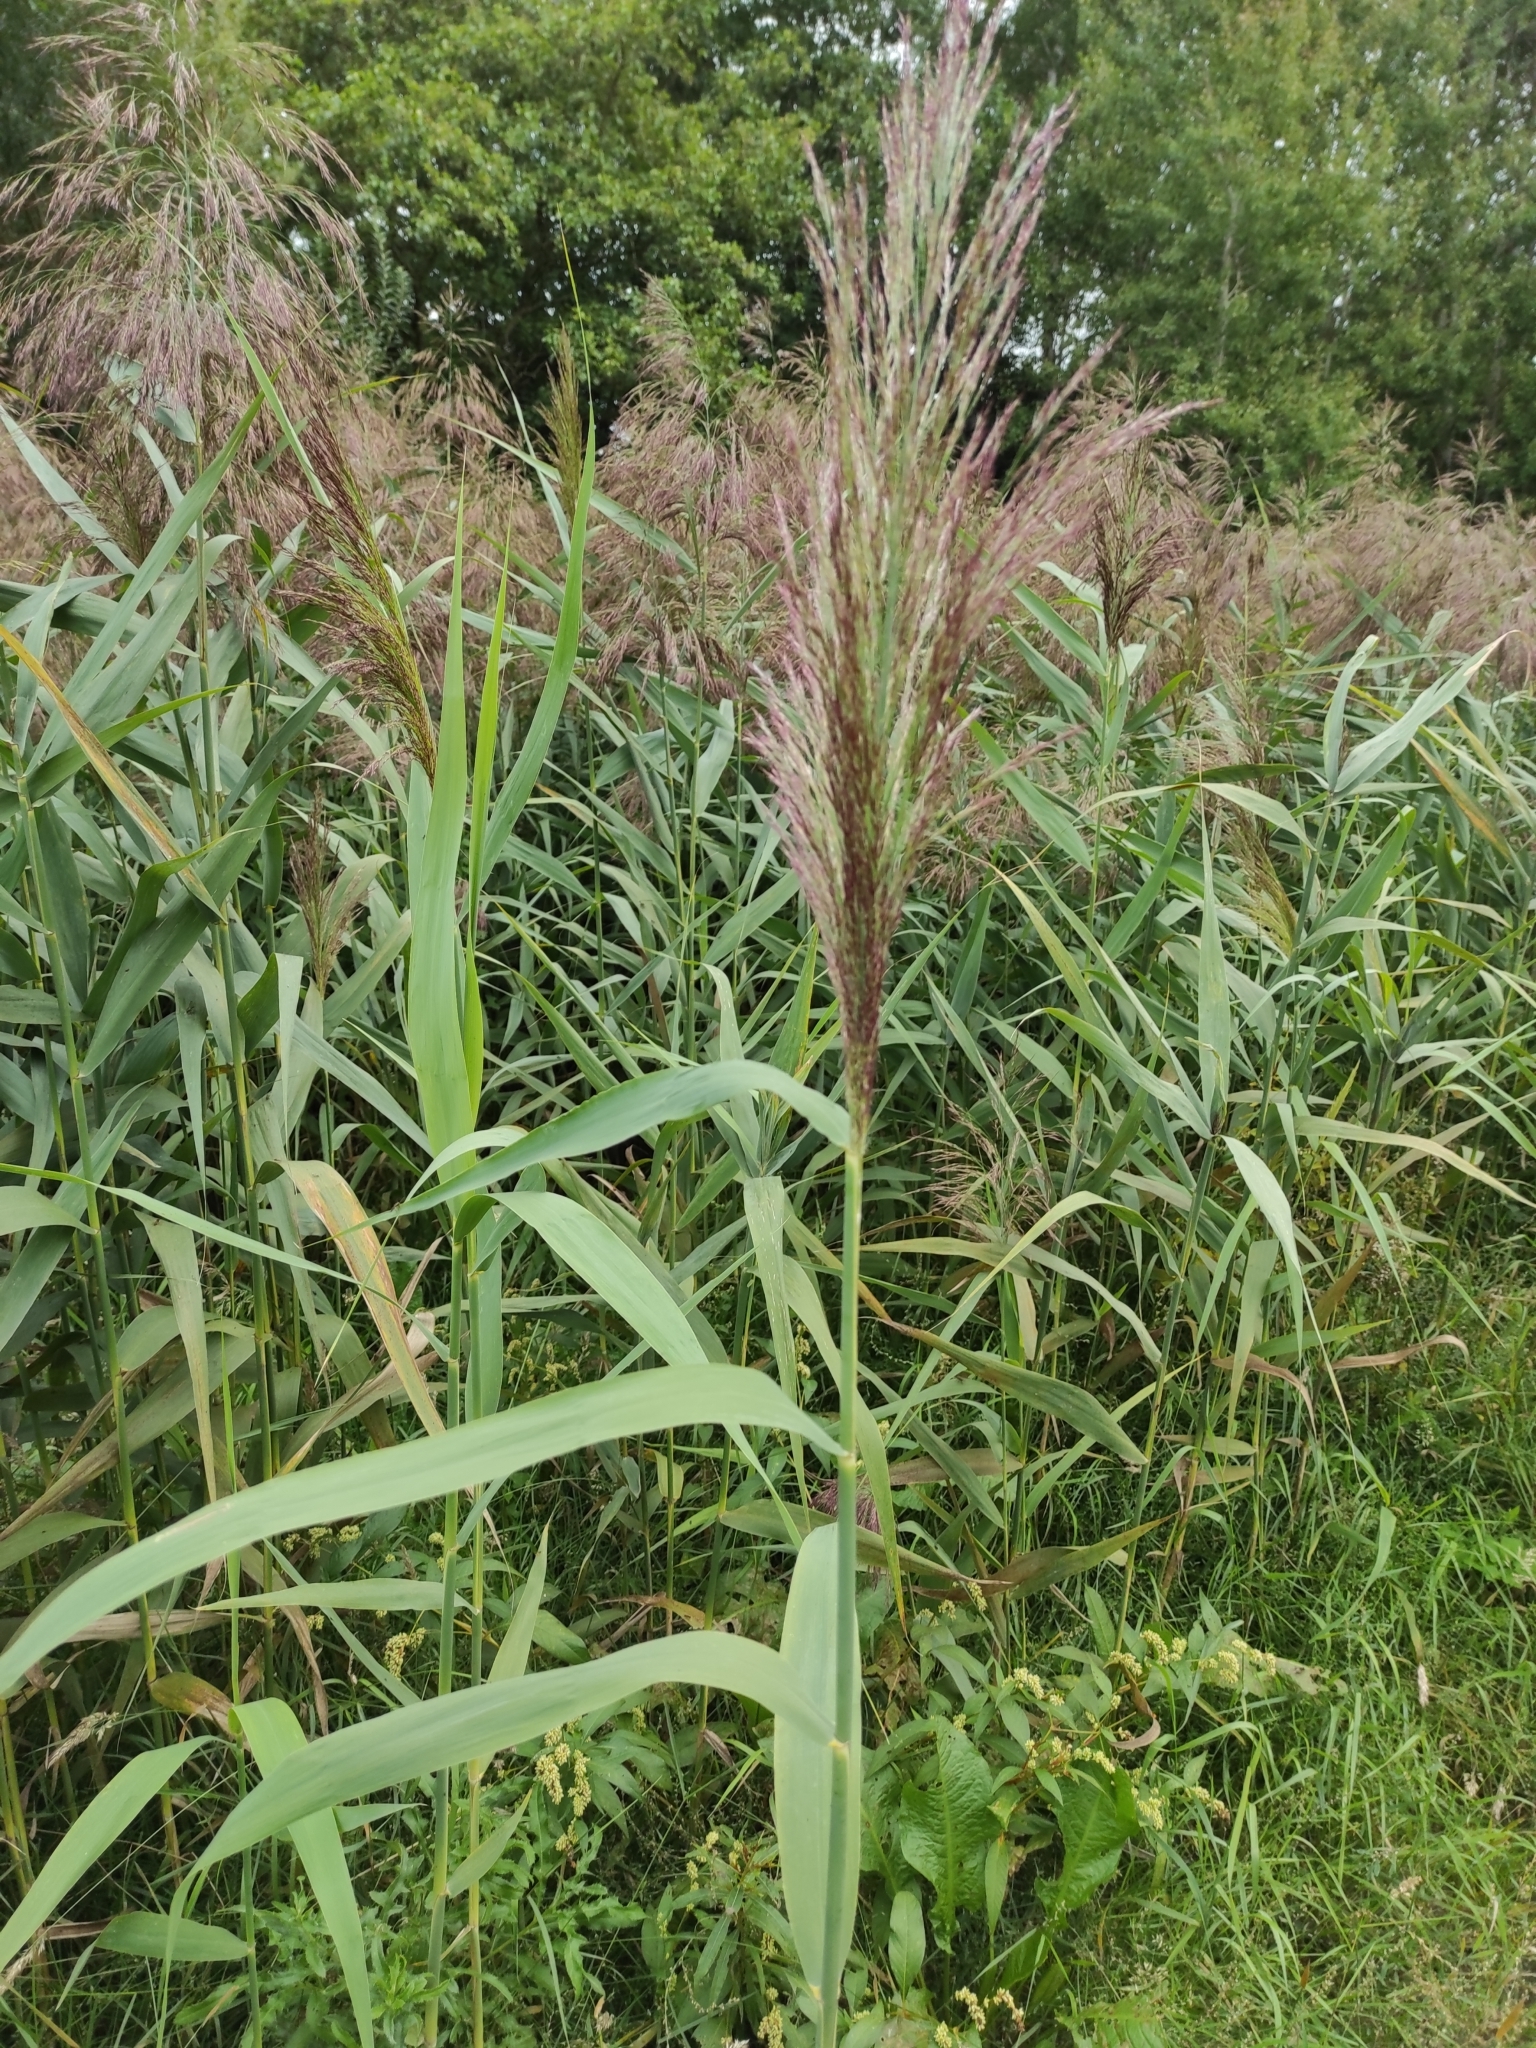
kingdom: Plantae
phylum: Tracheophyta
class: Liliopsida
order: Poales
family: Poaceae
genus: Phragmites
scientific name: Phragmites australis
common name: Common reed
